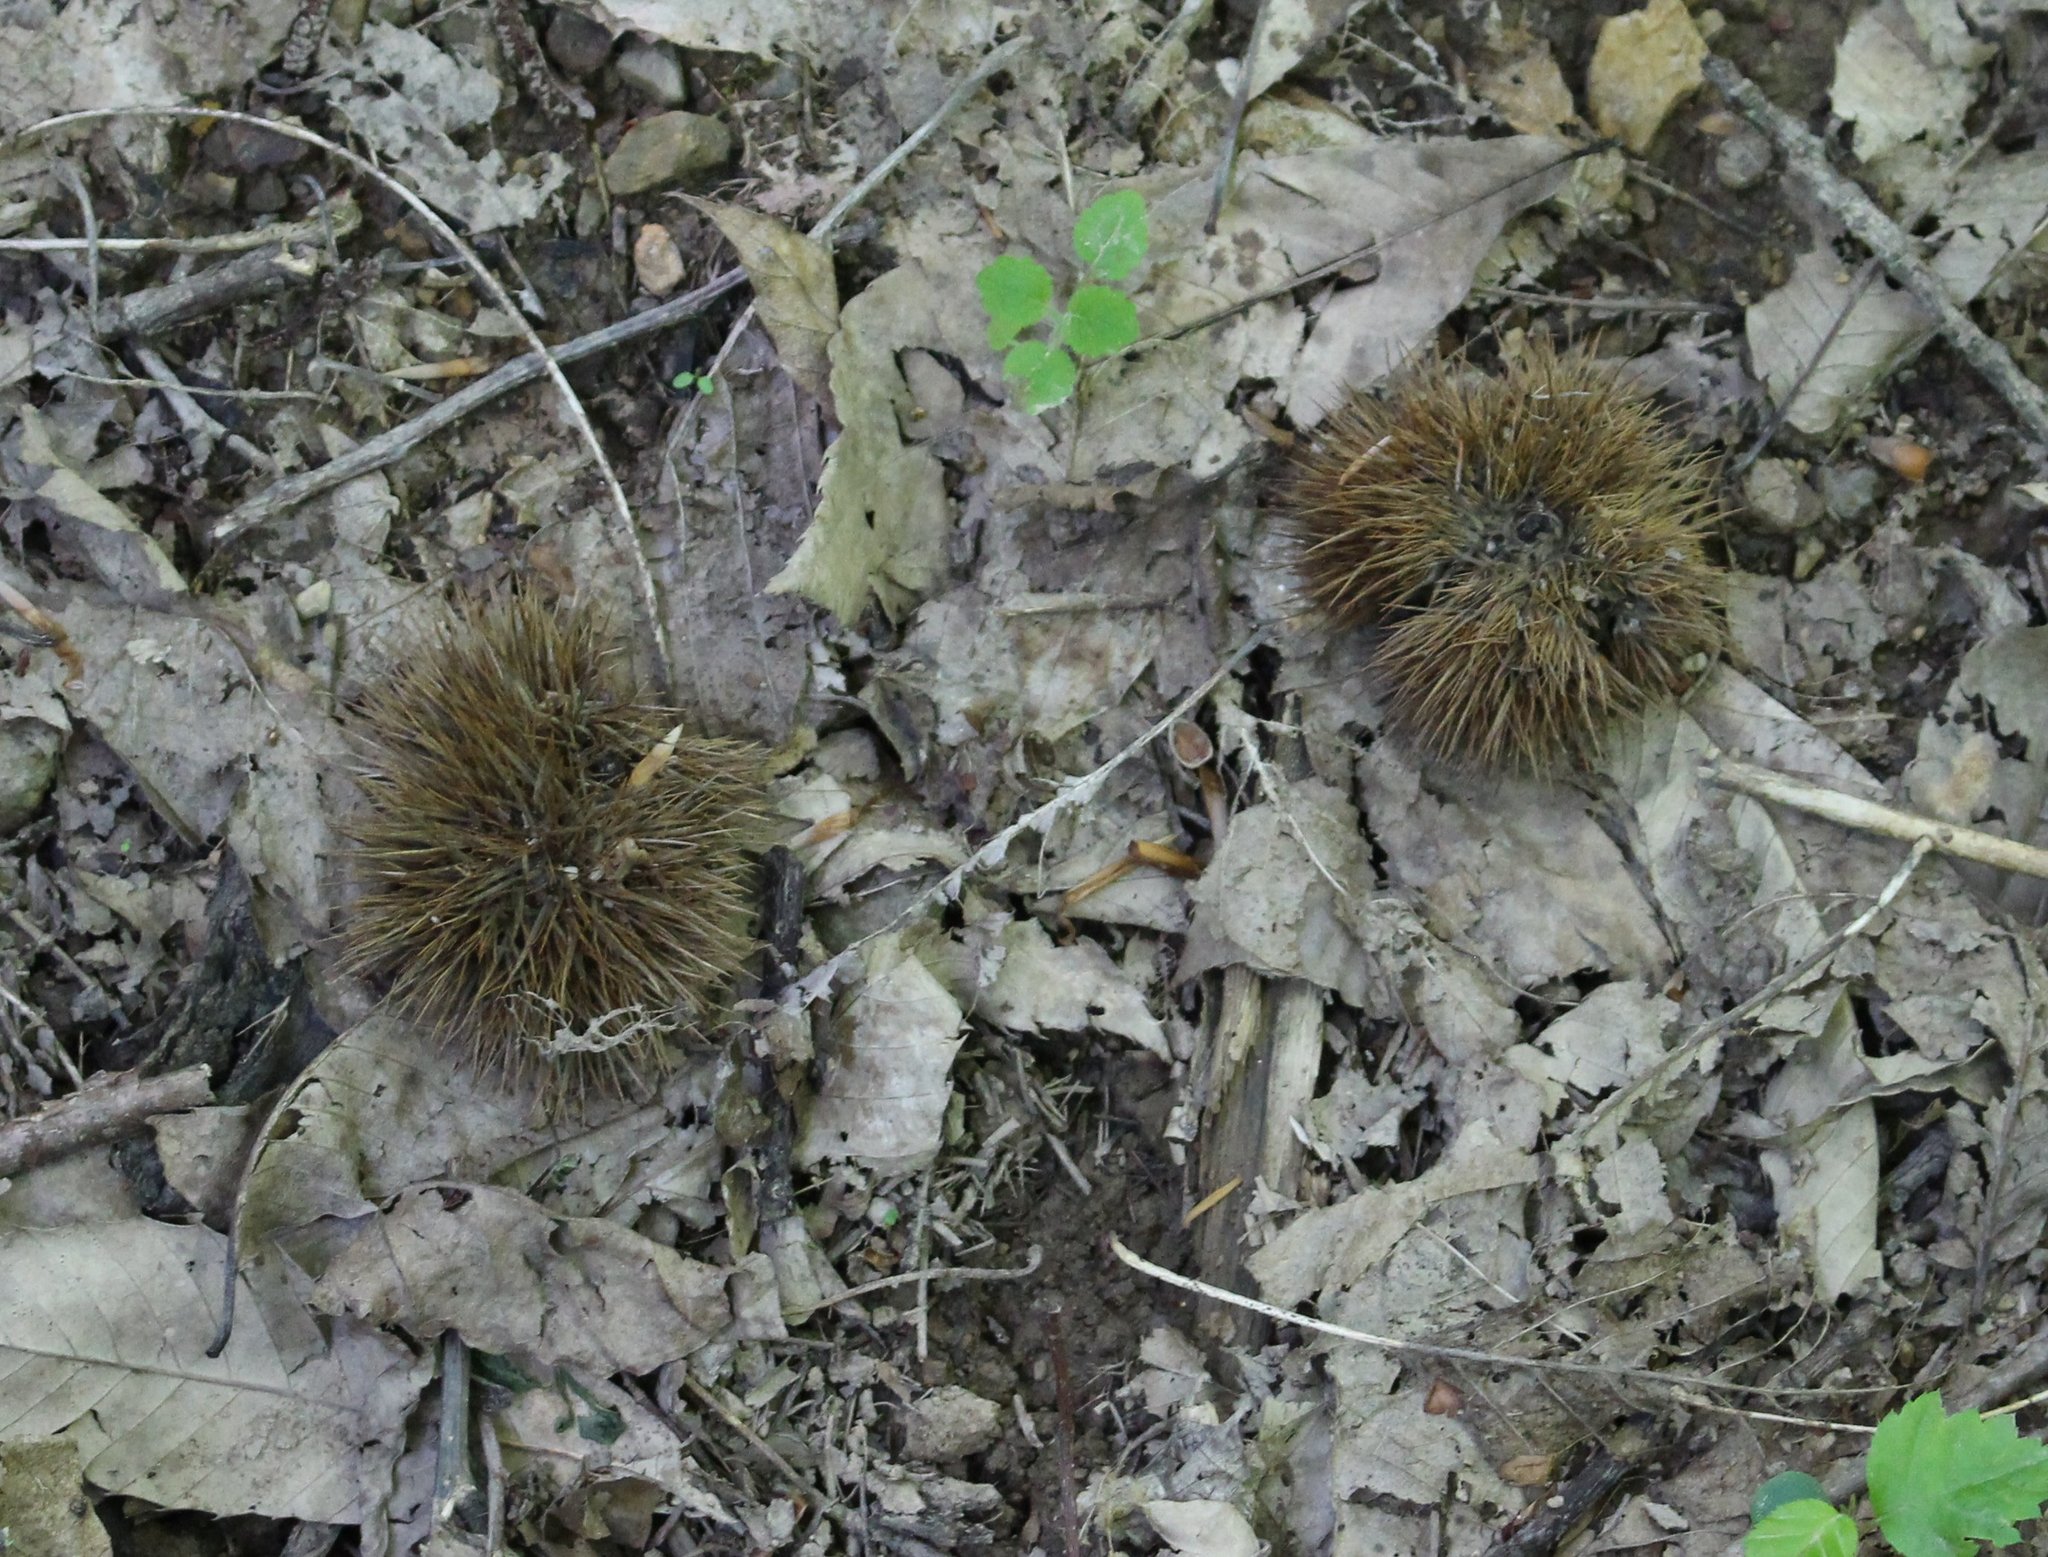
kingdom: Plantae
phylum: Tracheophyta
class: Magnoliopsida
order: Fagales
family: Fagaceae
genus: Castanea
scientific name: Castanea sativa
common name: Sweet chestnut
